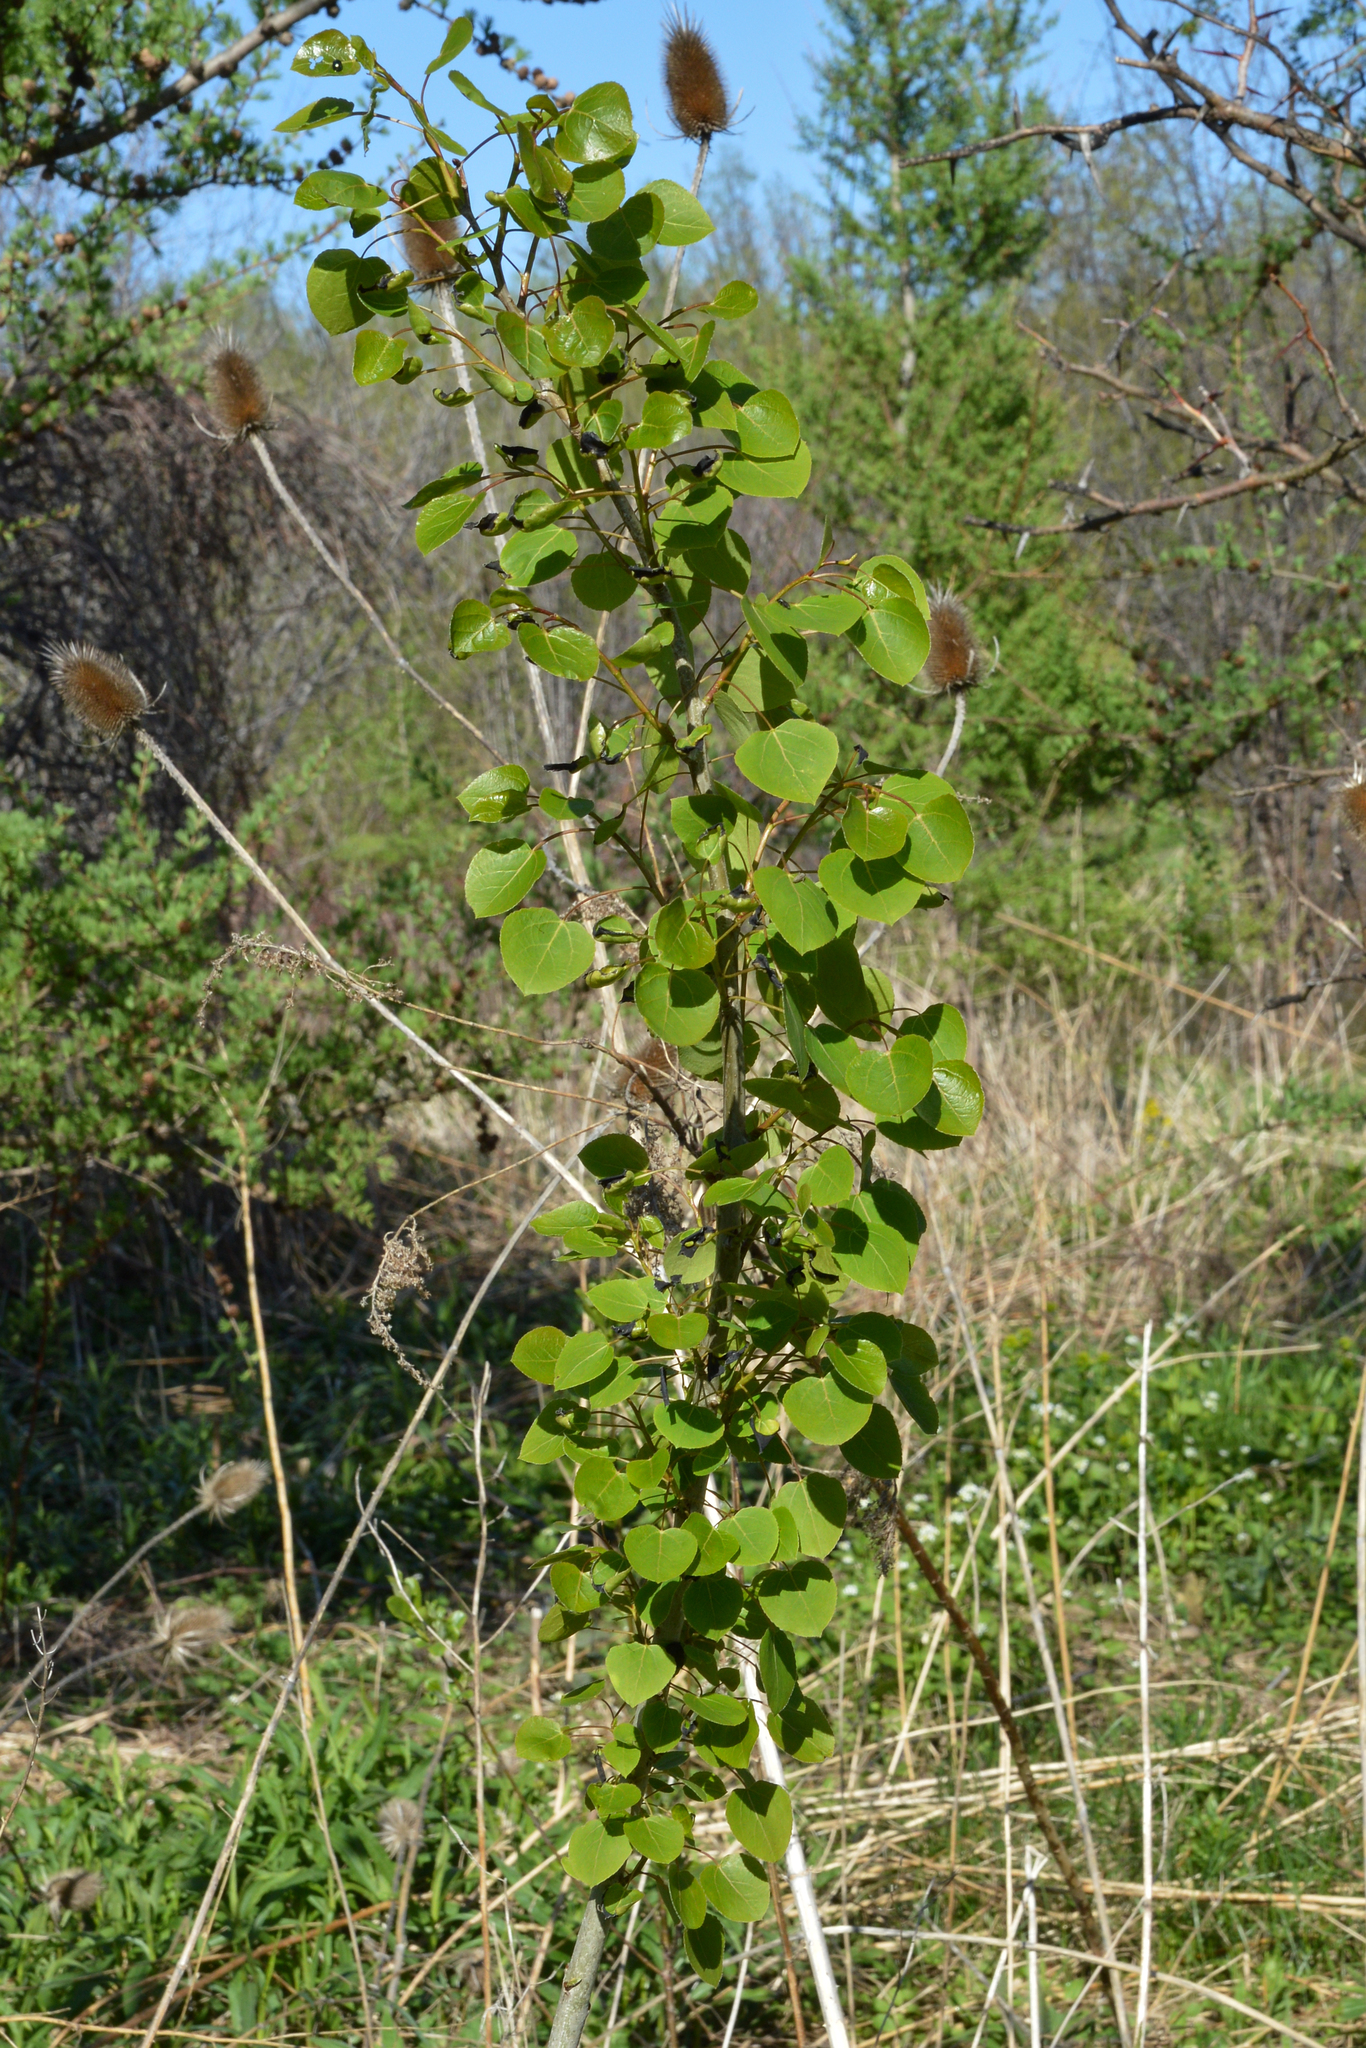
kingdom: Plantae
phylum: Tracheophyta
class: Magnoliopsida
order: Malpighiales
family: Salicaceae
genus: Populus
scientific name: Populus tremuloides
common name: Quaking aspen
